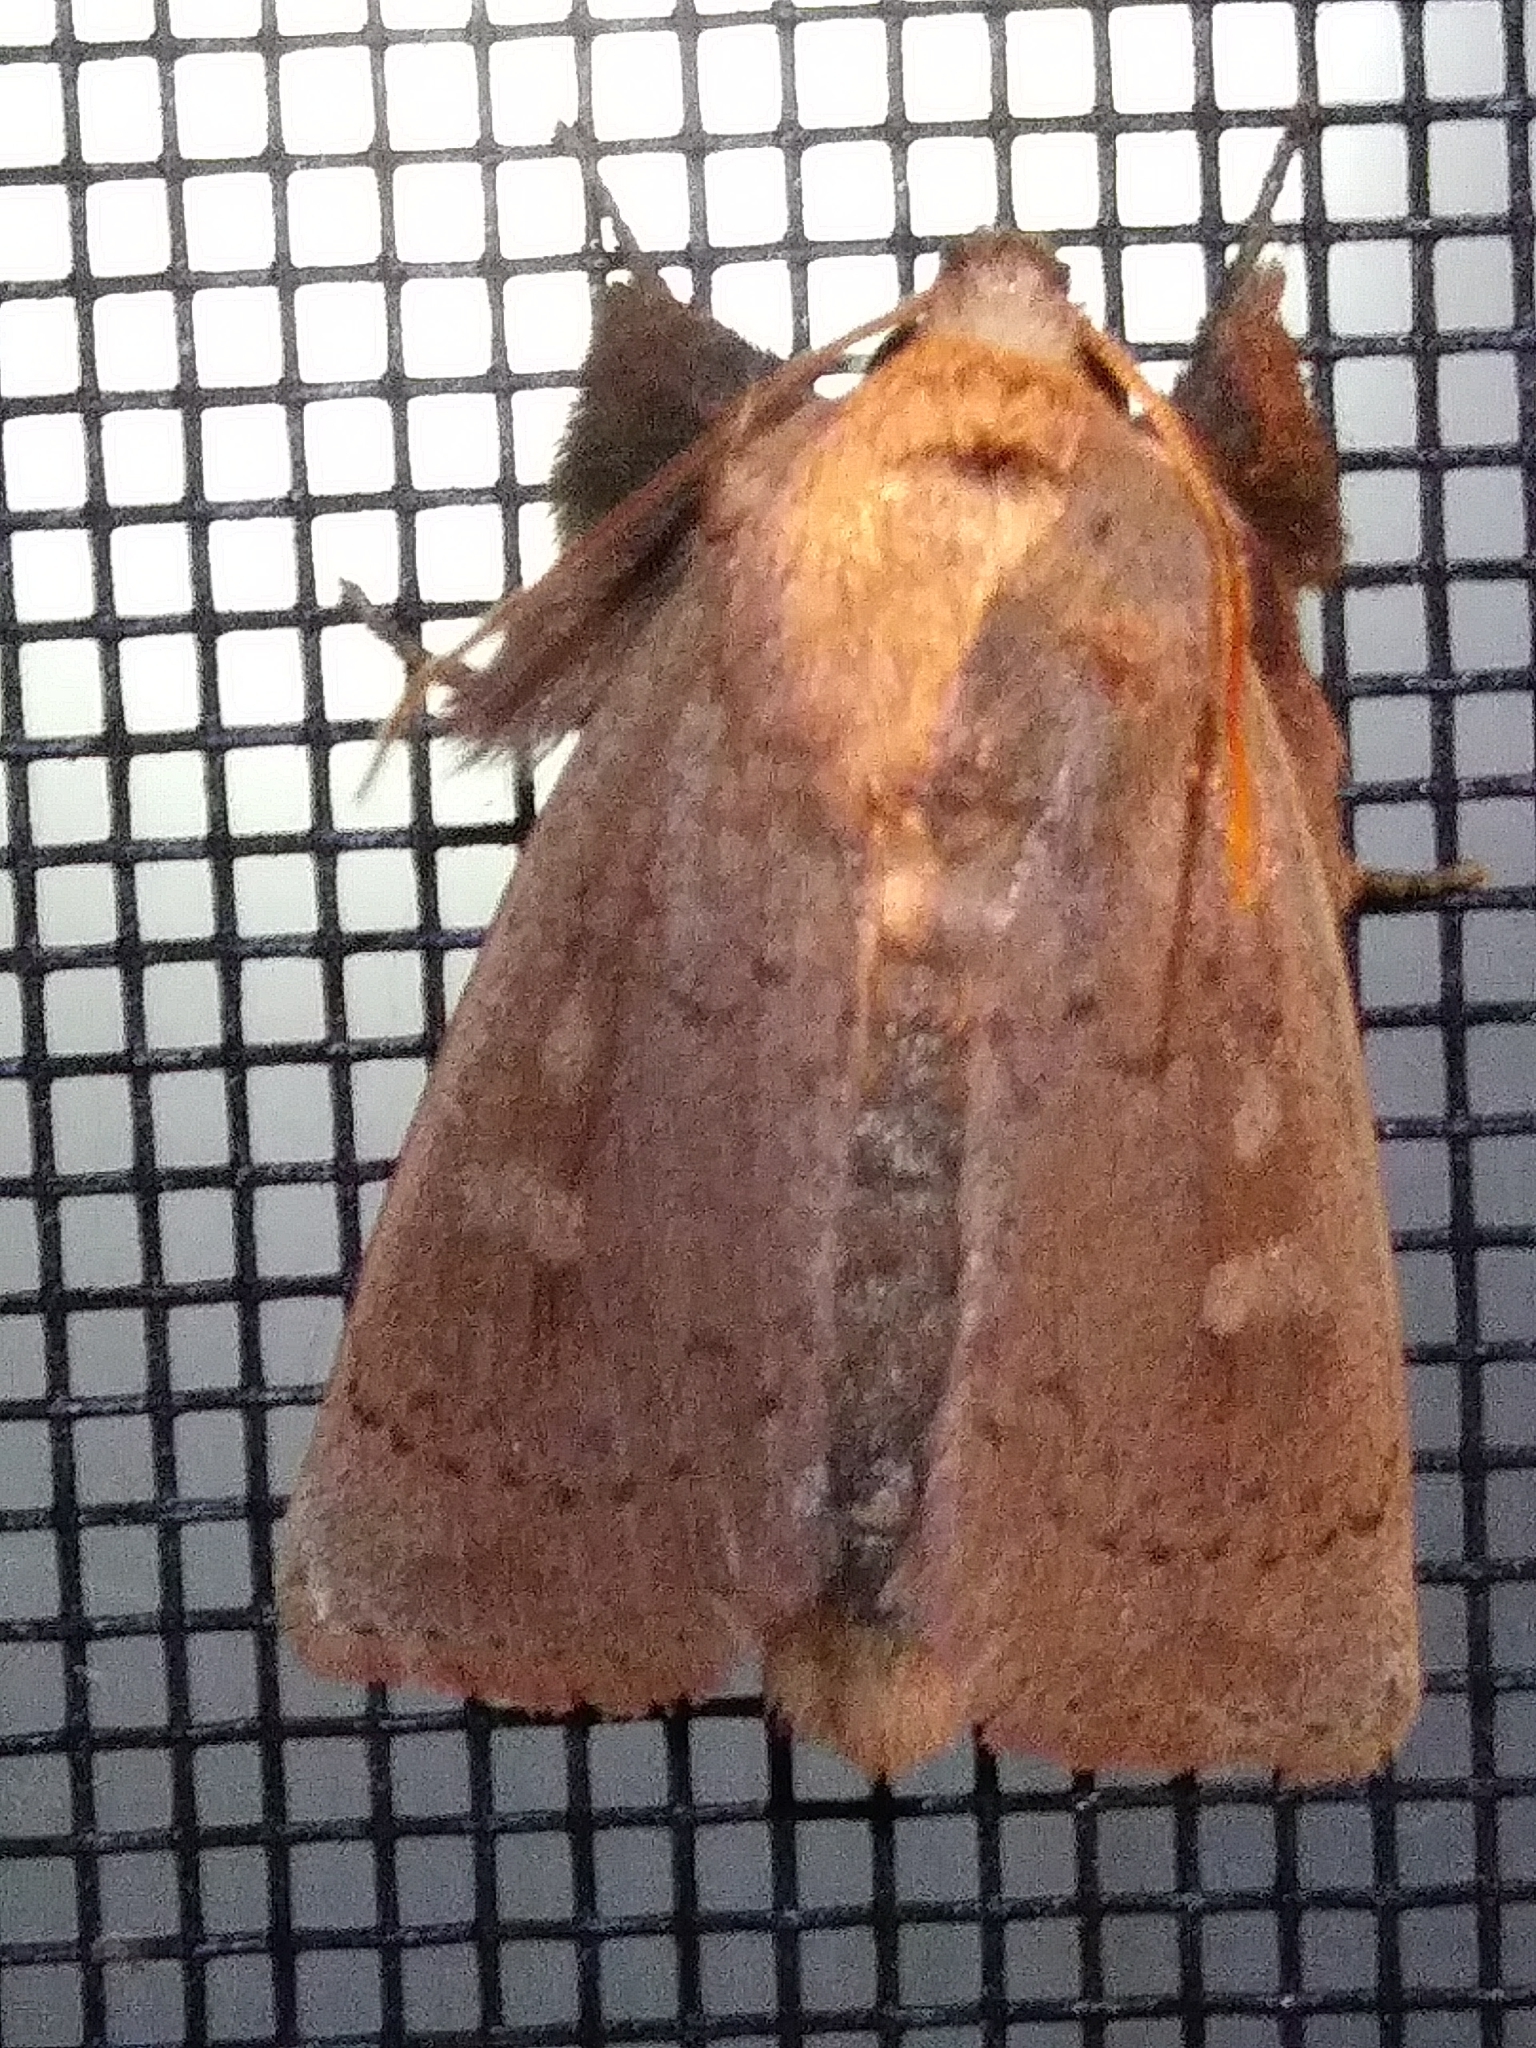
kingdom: Animalia
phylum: Arthropoda
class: Insecta
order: Lepidoptera
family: Noctuidae
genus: Leucania
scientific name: Leucania pseudargyria
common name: False wainscot
